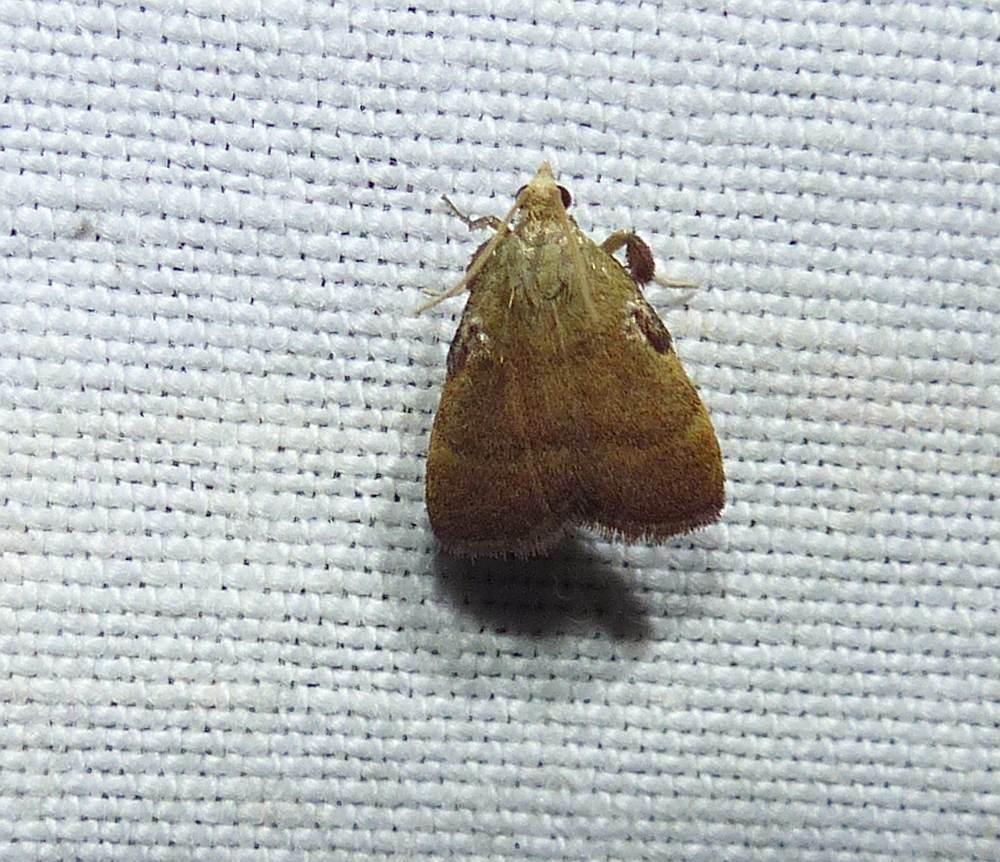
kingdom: Animalia
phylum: Arthropoda
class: Insecta
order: Lepidoptera
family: Pyralidae
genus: Condylolomia
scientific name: Condylolomia participialis
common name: Drab condylolomia moth
